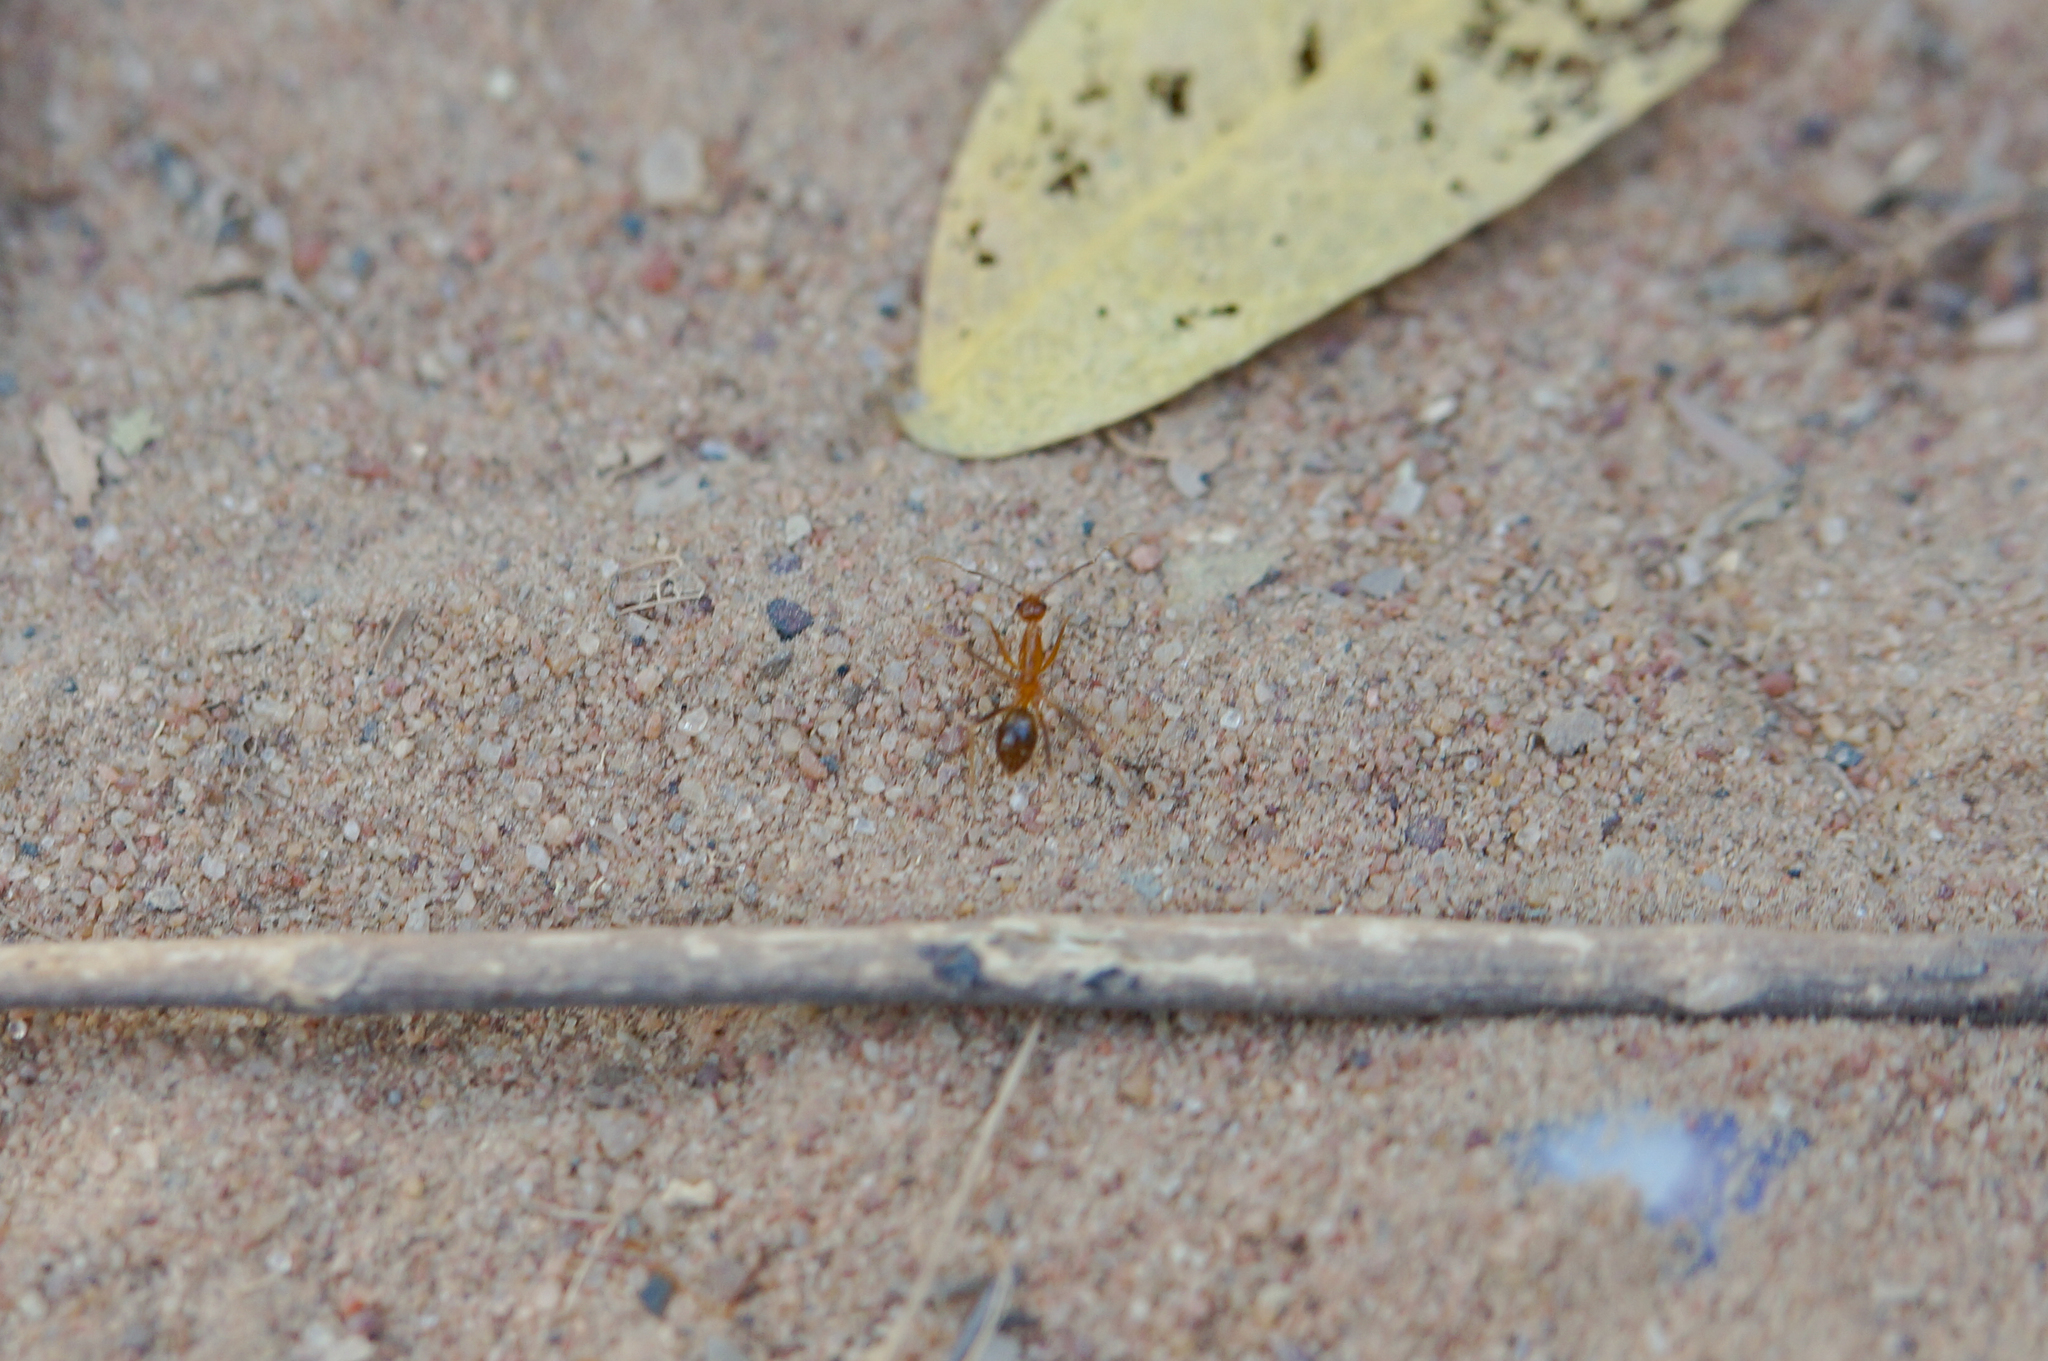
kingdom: Animalia
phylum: Arthropoda
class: Insecta
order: Hymenoptera
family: Formicidae
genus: Anoplolepis
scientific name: Anoplolepis gracilipes
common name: Ant
